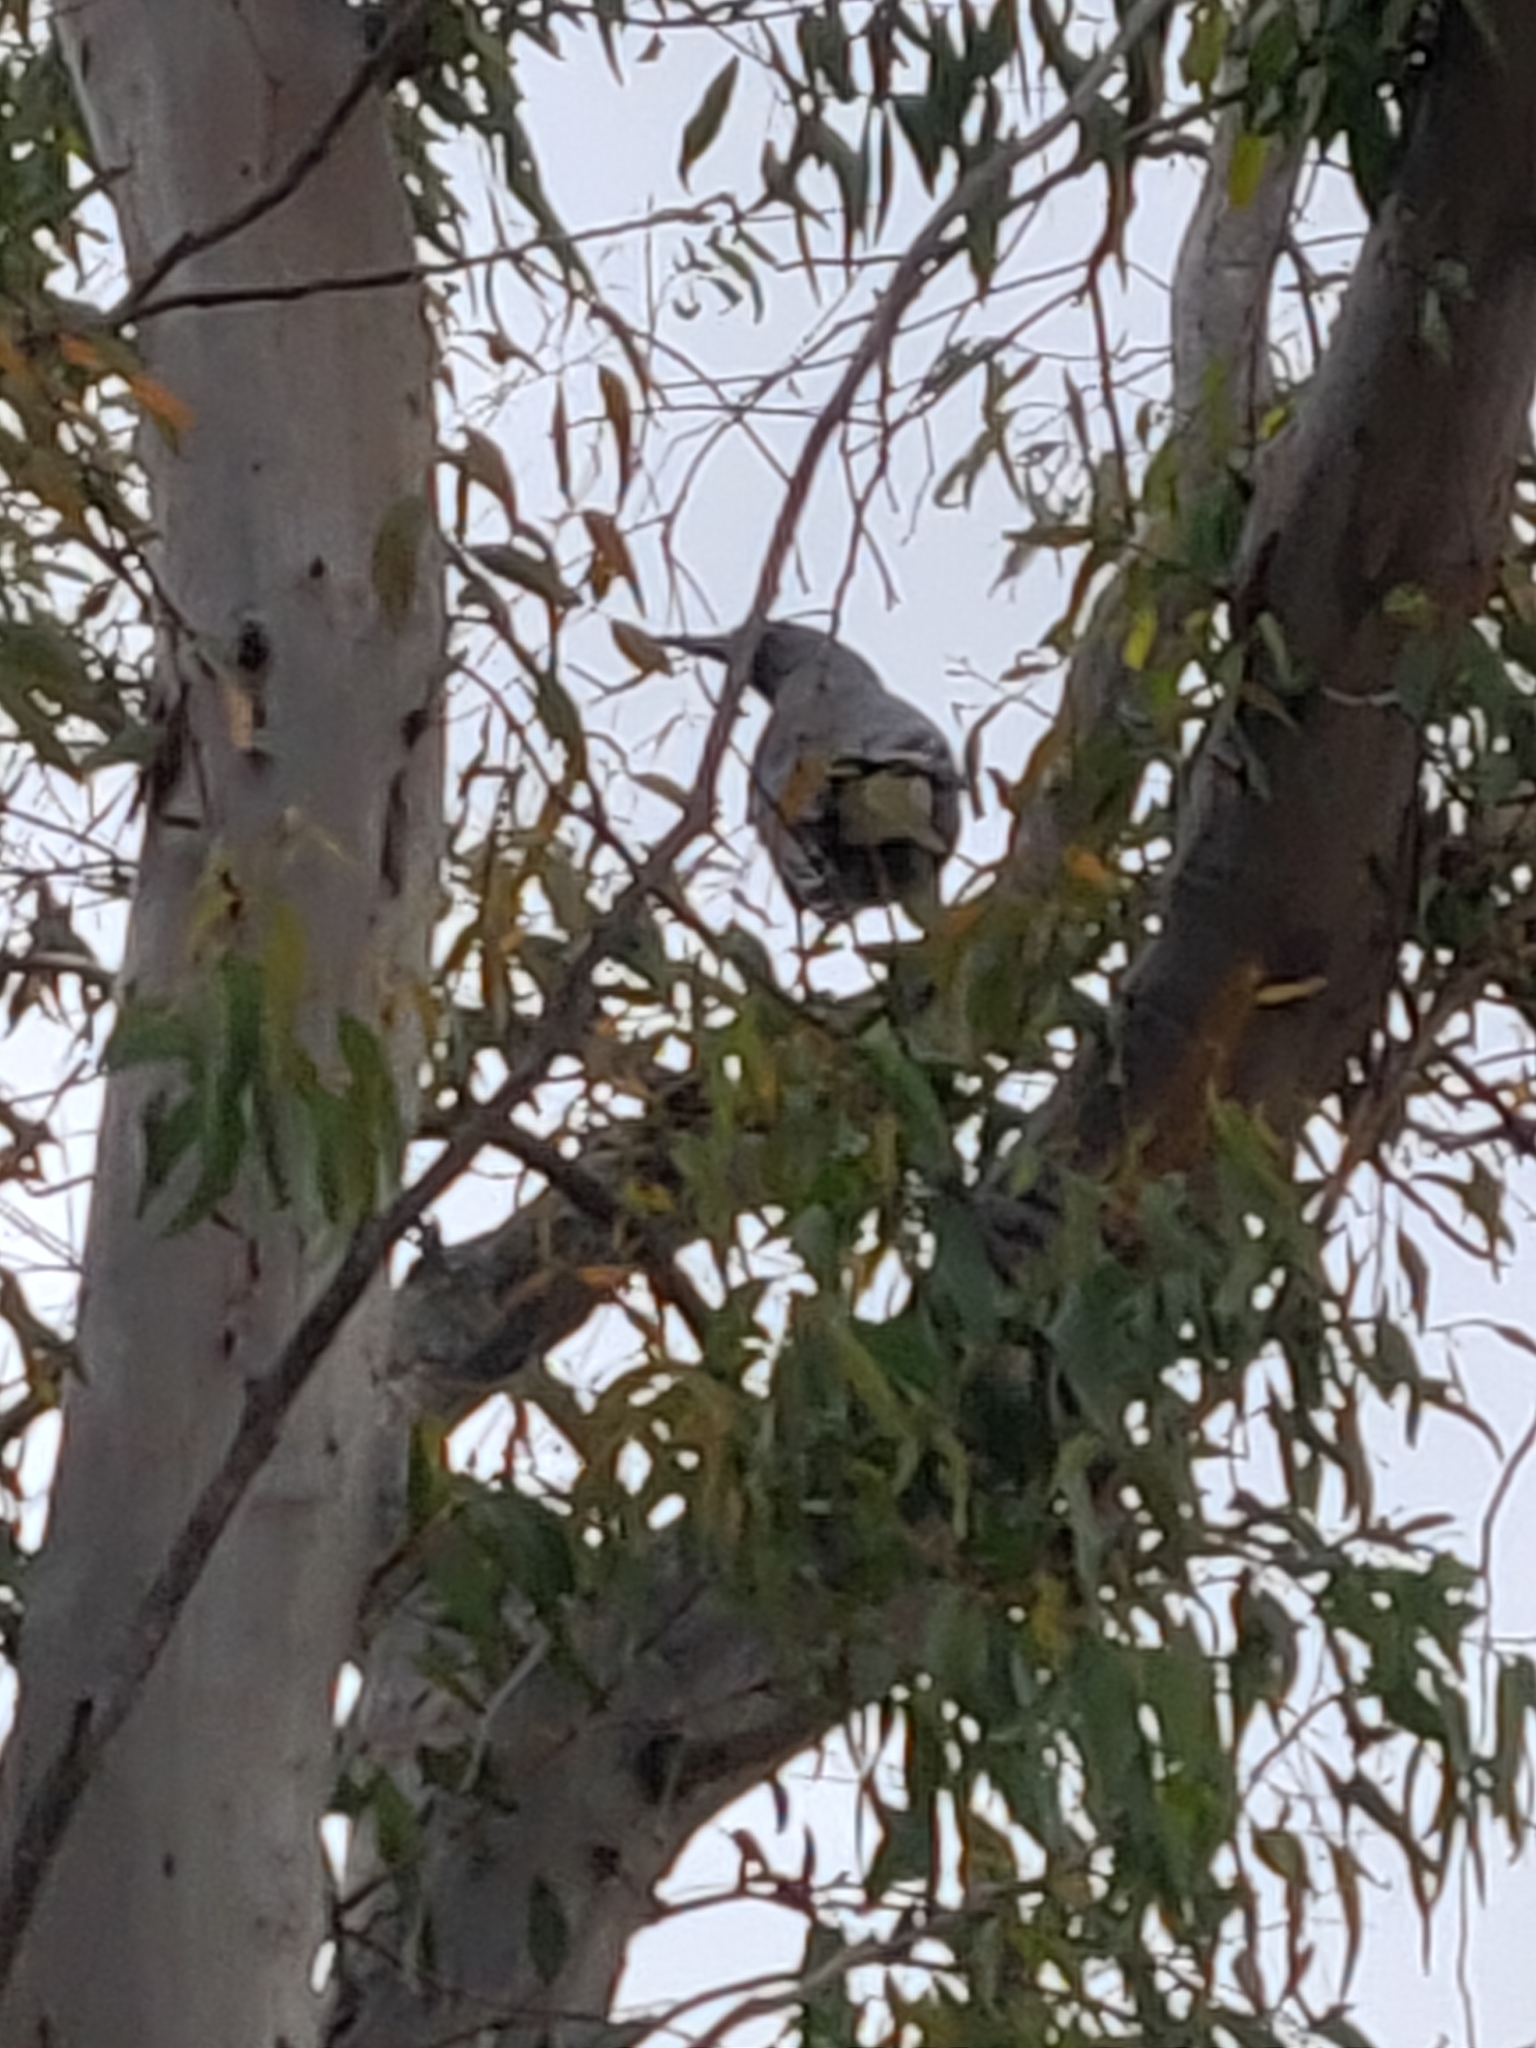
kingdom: Animalia
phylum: Chordata
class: Aves
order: Passeriformes
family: Cracticidae
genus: Strepera
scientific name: Strepera versicolor
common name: Grey currawong
